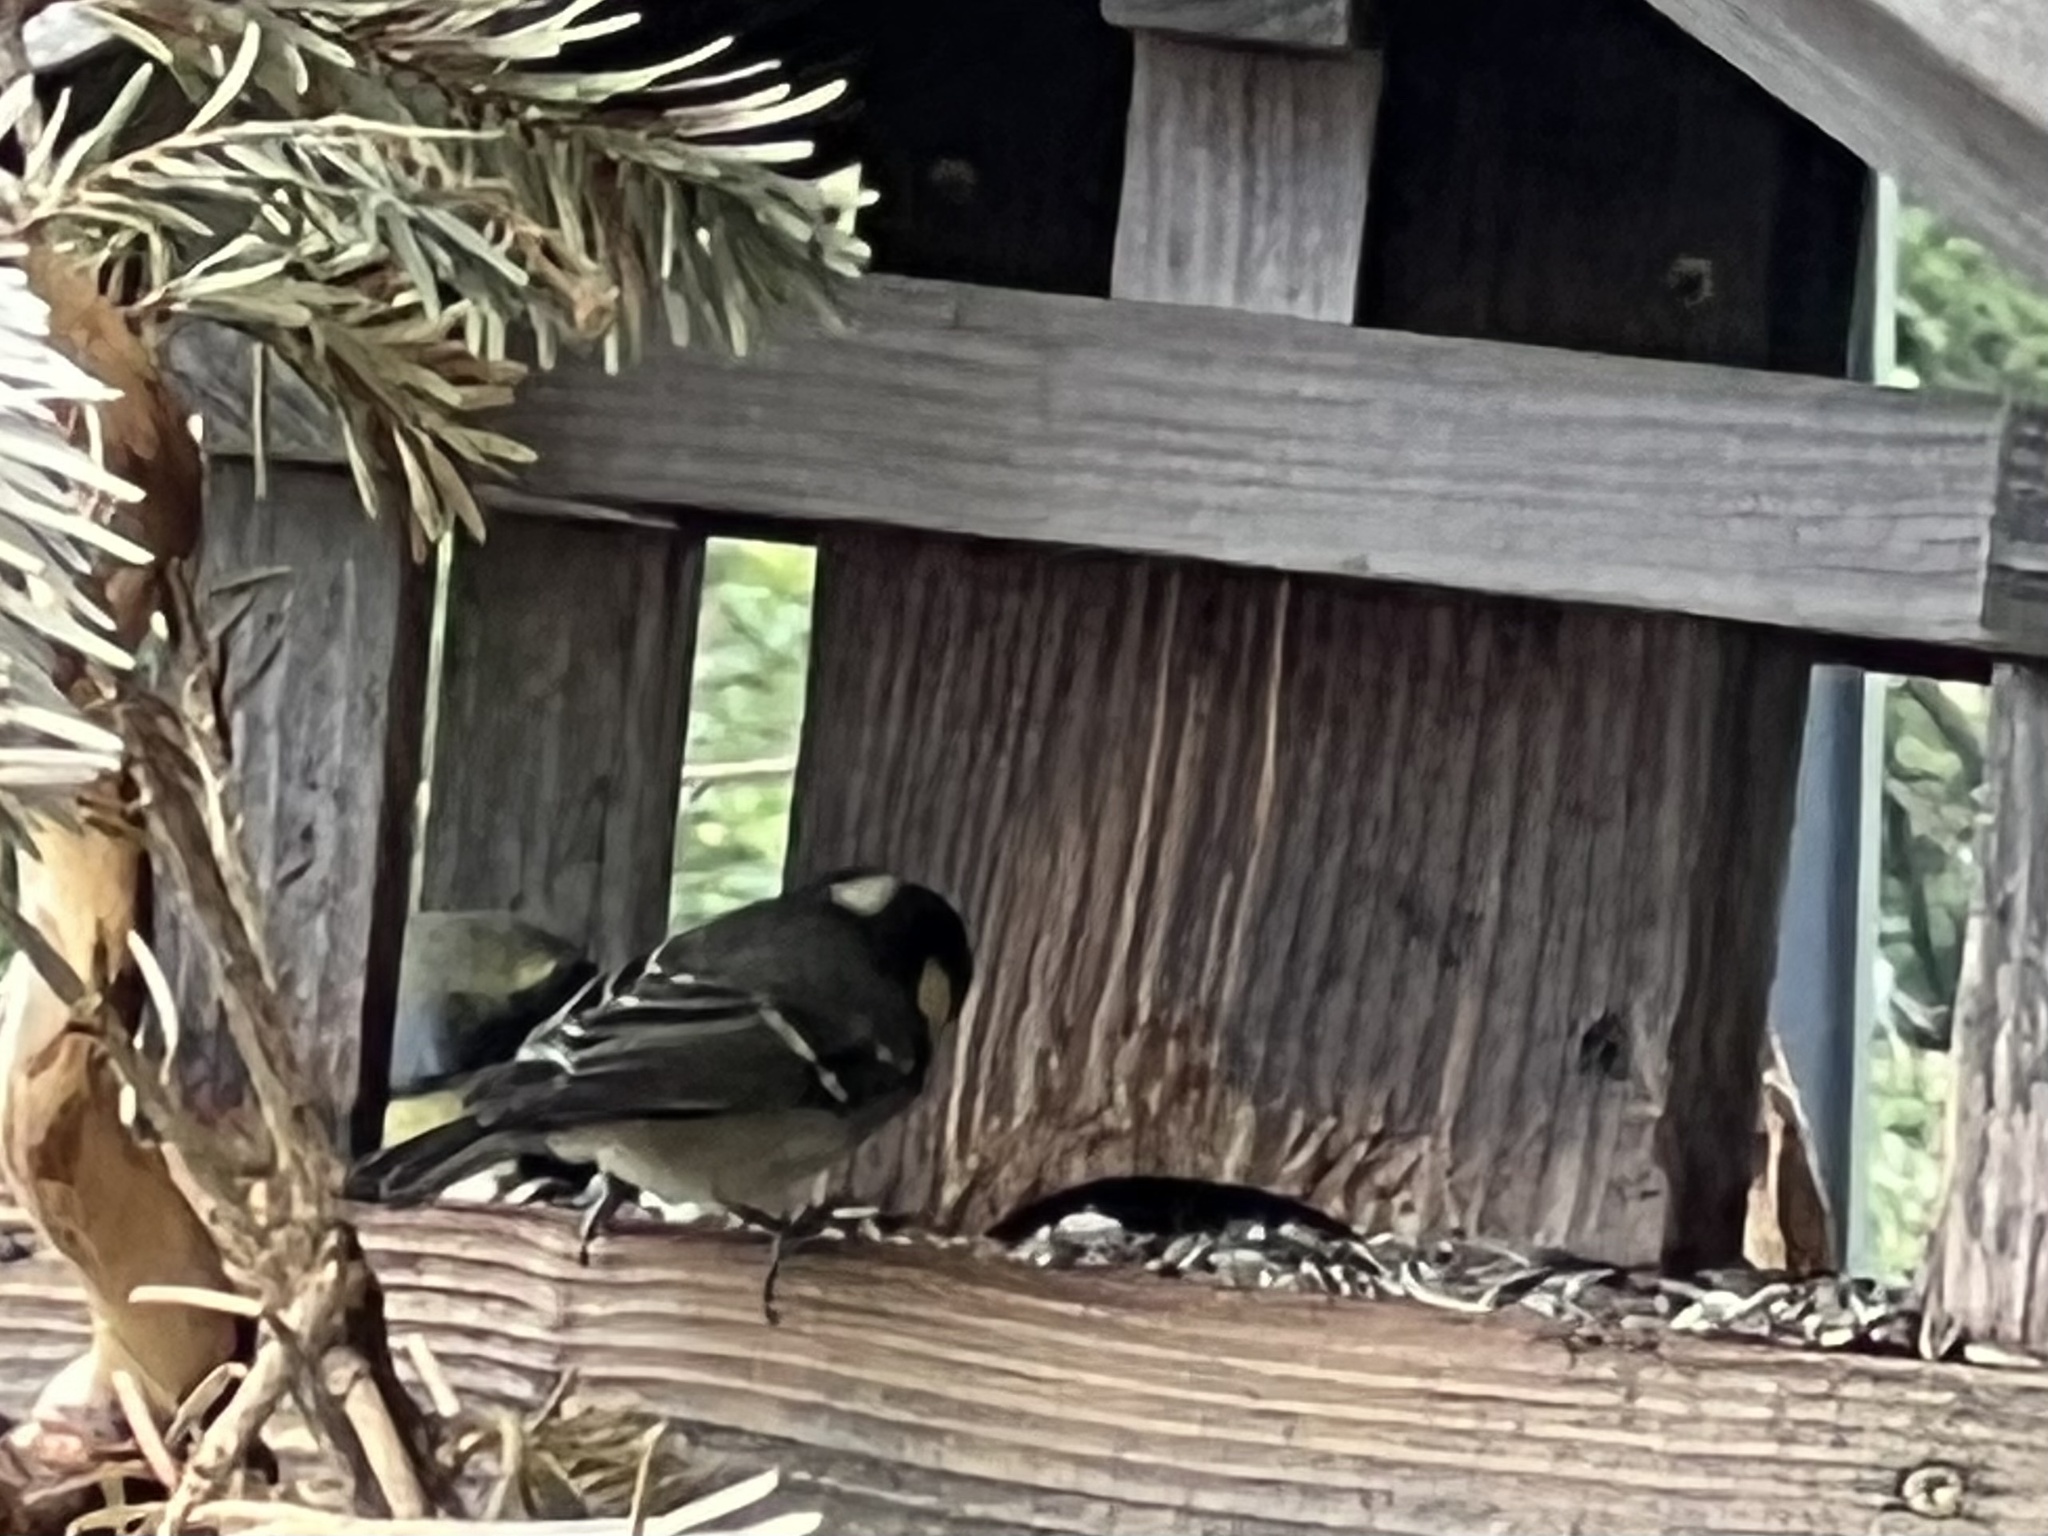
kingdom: Animalia
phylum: Chordata
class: Aves
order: Passeriformes
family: Paridae
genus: Periparus
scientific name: Periparus ater
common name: Coal tit
